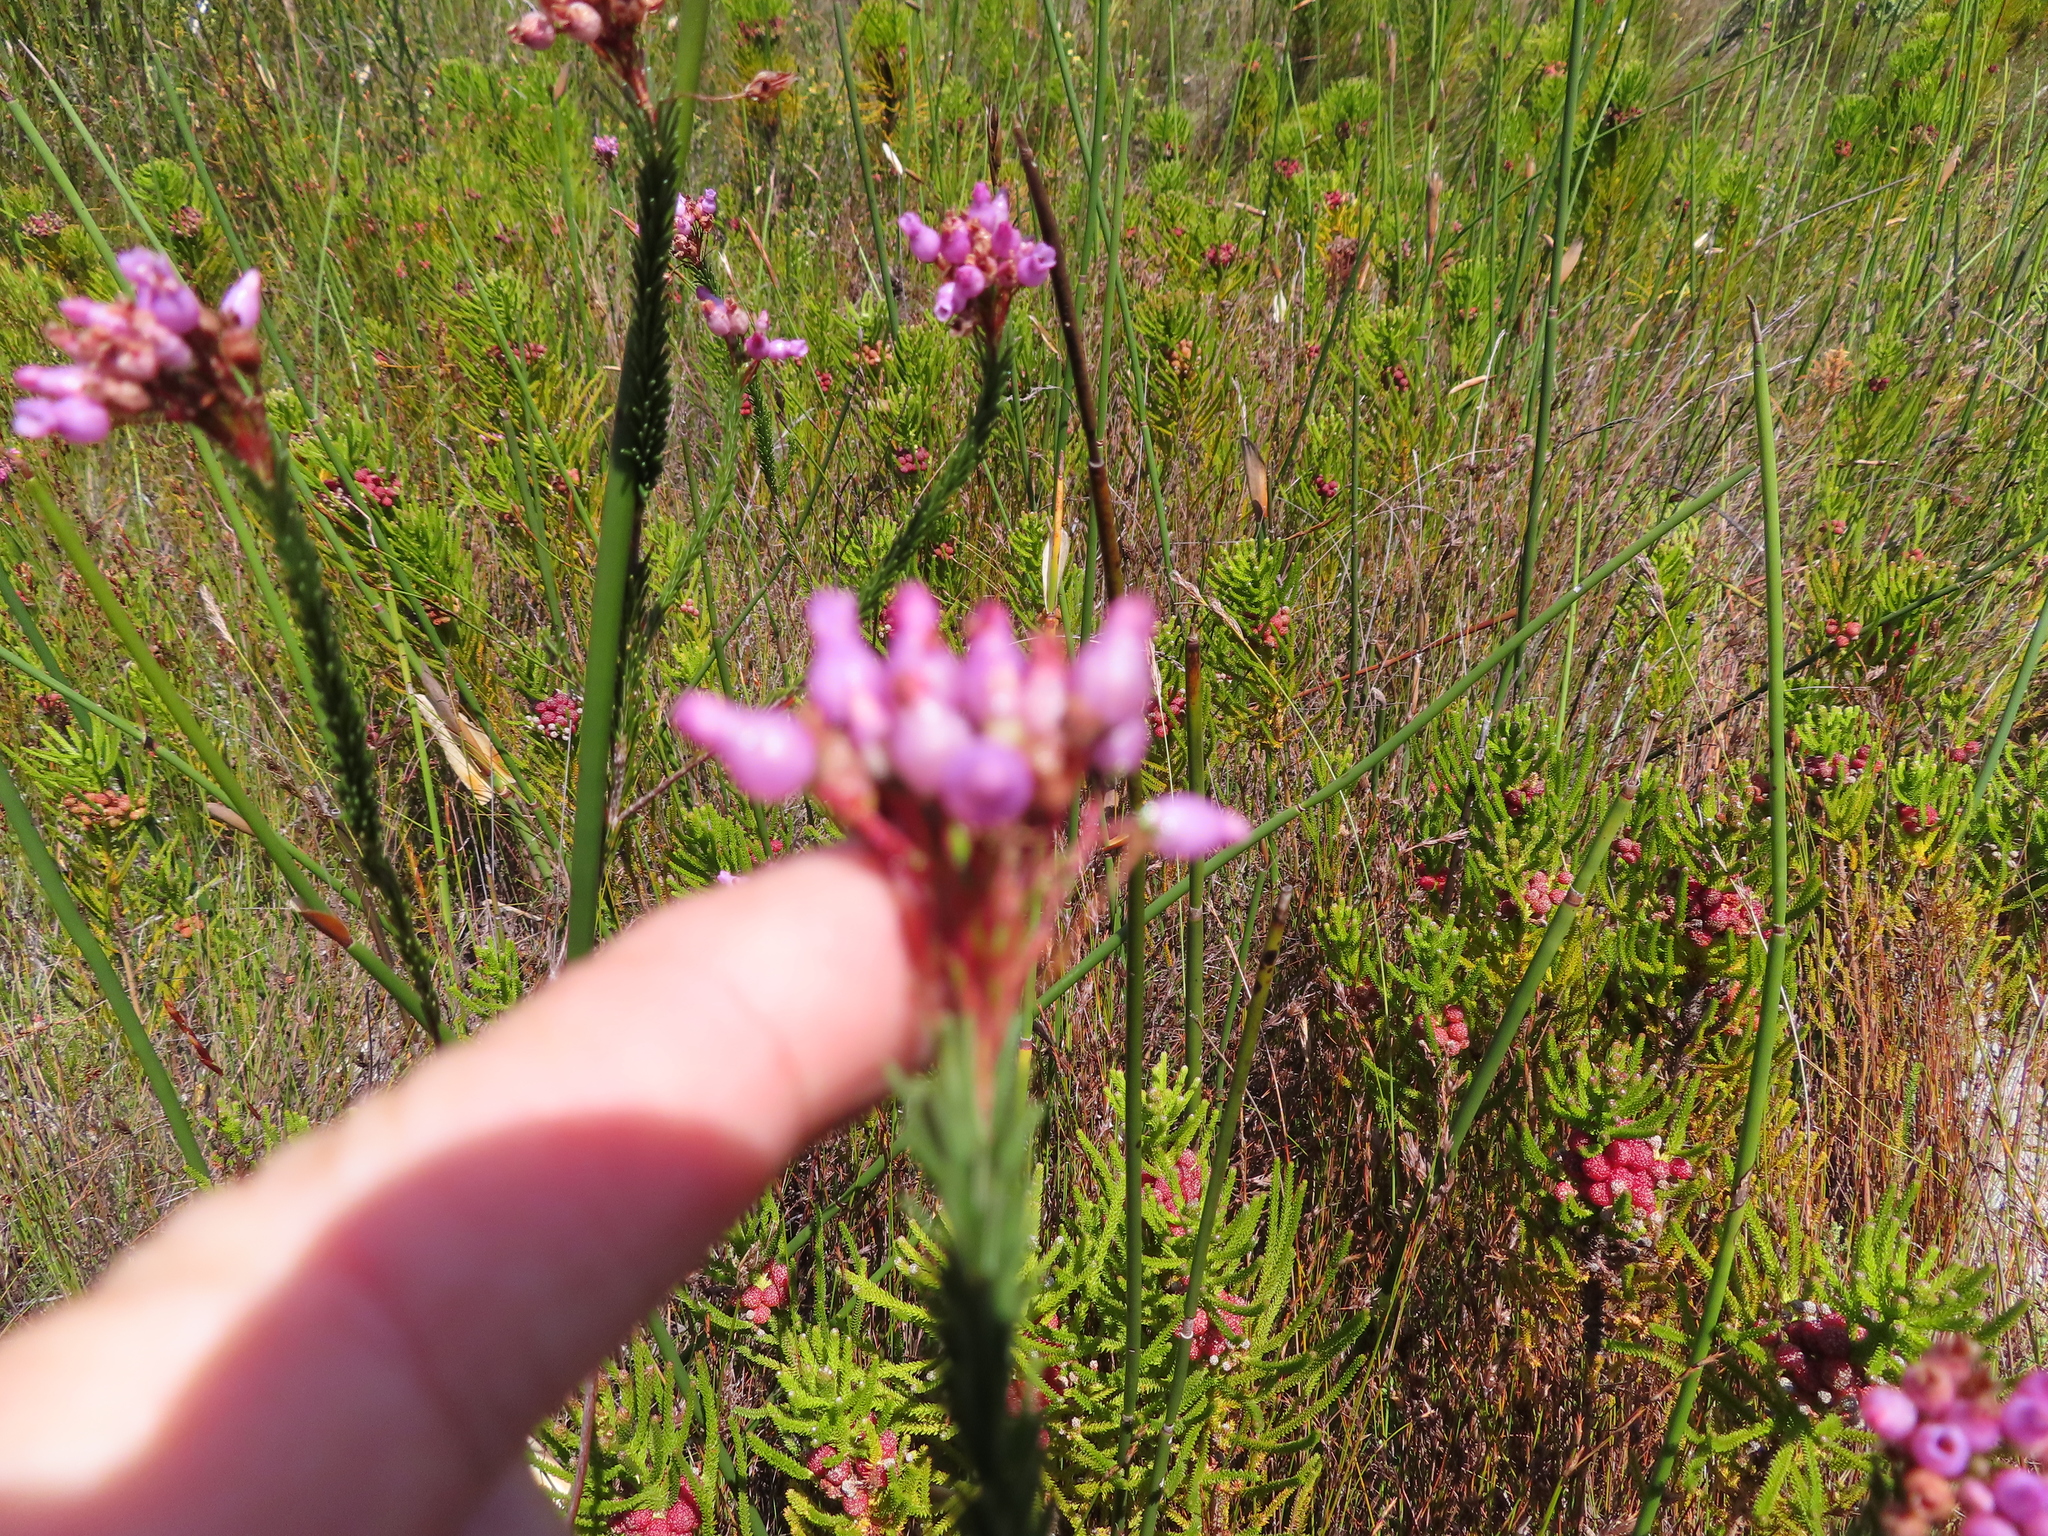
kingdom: Plantae
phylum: Tracheophyta
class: Magnoliopsida
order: Ericales
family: Ericaceae
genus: Erica
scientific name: Erica obliqua
